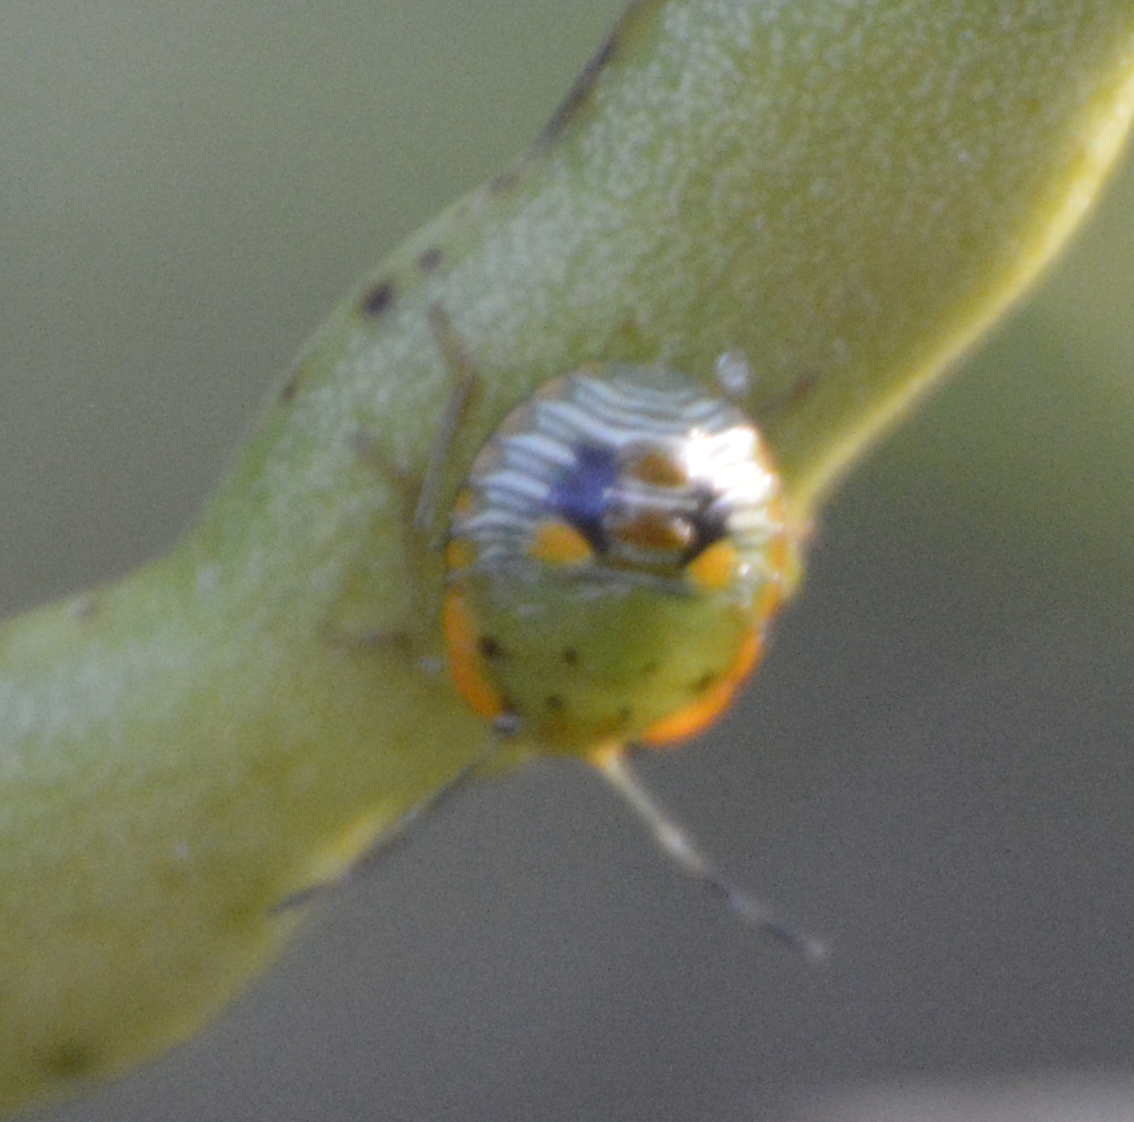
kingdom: Animalia
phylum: Arthropoda
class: Insecta
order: Hemiptera
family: Pentatomidae
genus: Chinavia
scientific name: Chinavia hilaris
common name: Green stink bug
